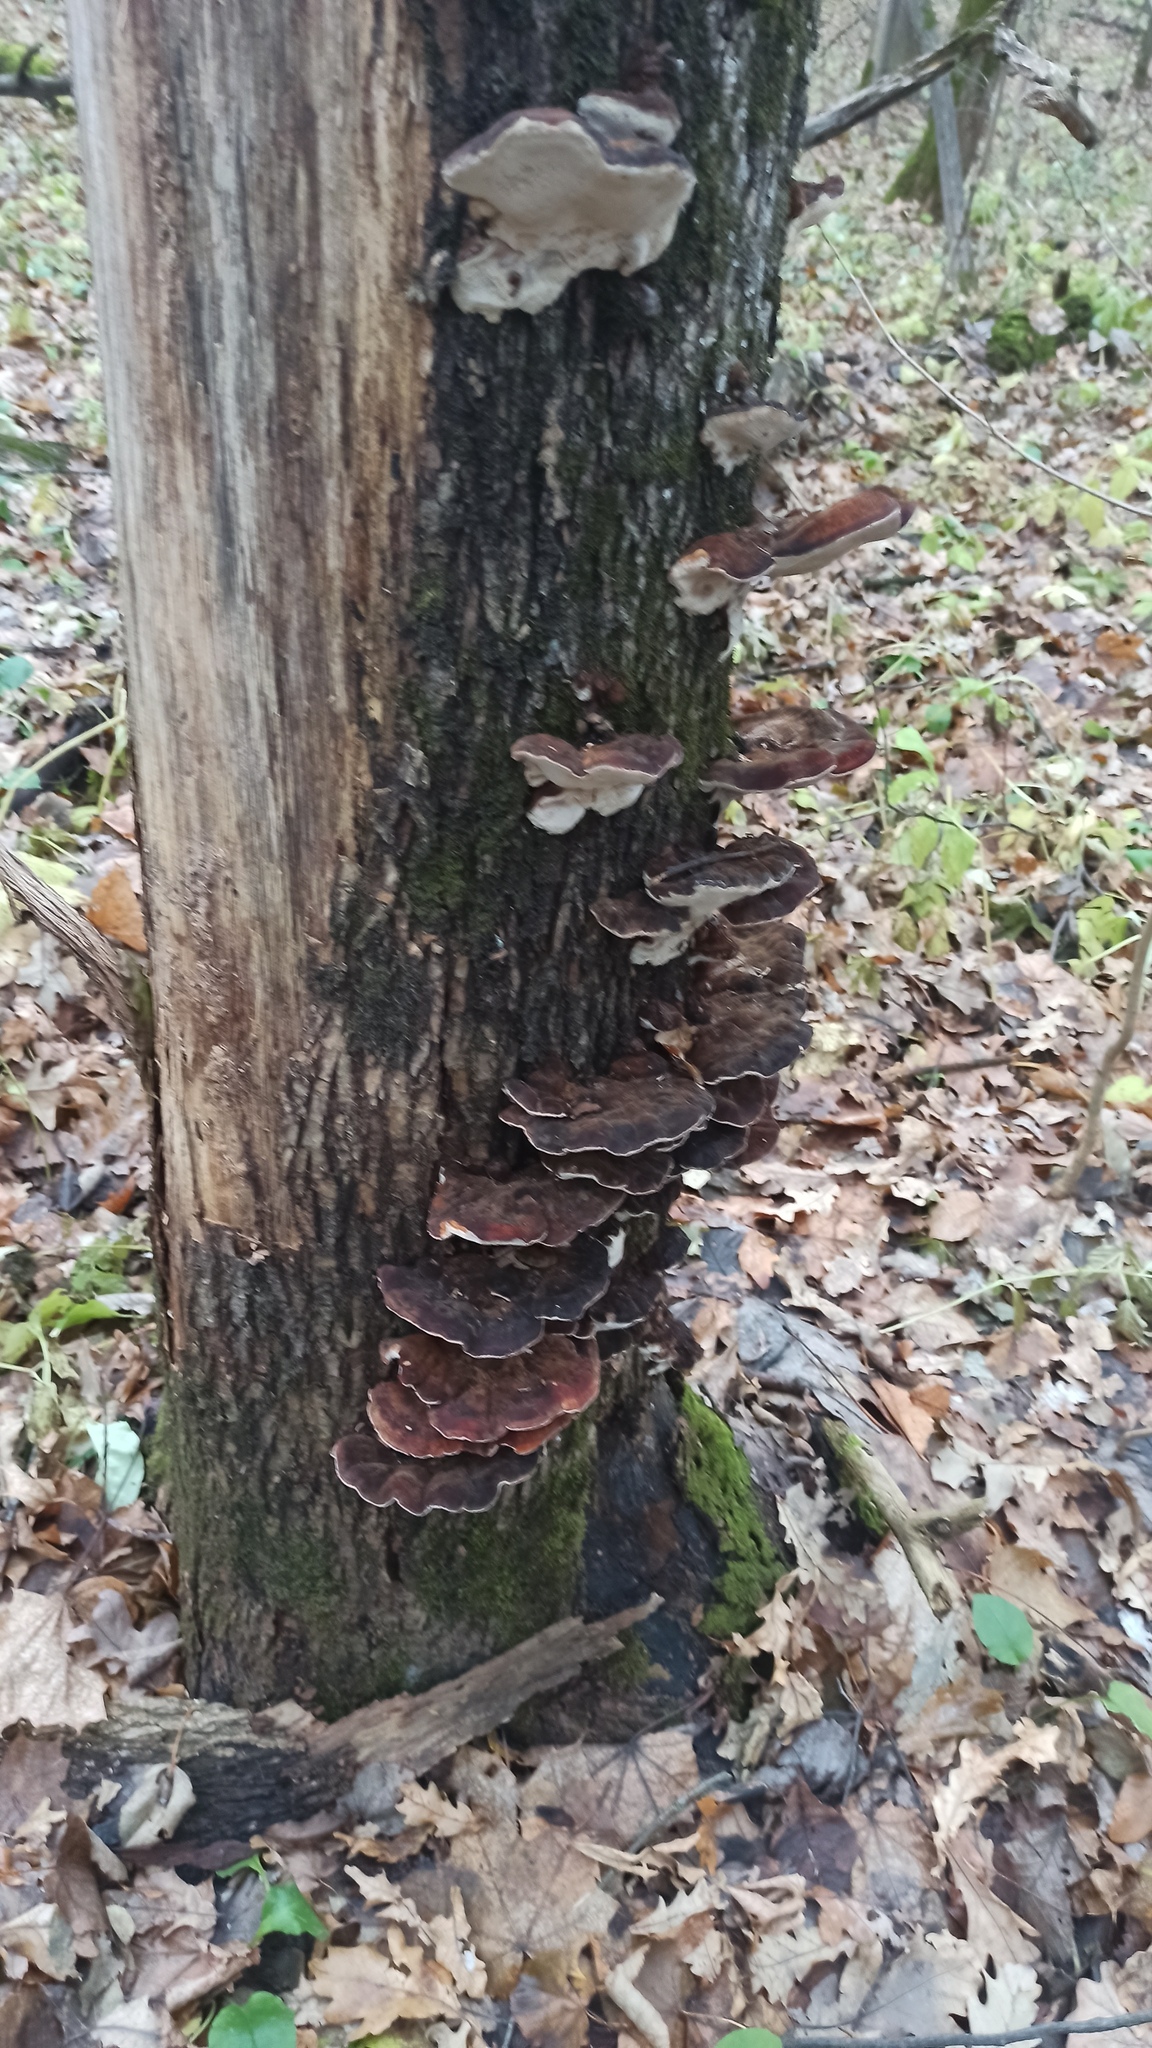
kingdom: Fungi
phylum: Basidiomycota
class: Agaricomycetes
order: Polyporales
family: Ischnodermataceae
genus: Ischnoderma
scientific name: Ischnoderma resinosum
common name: Resinous polypore
